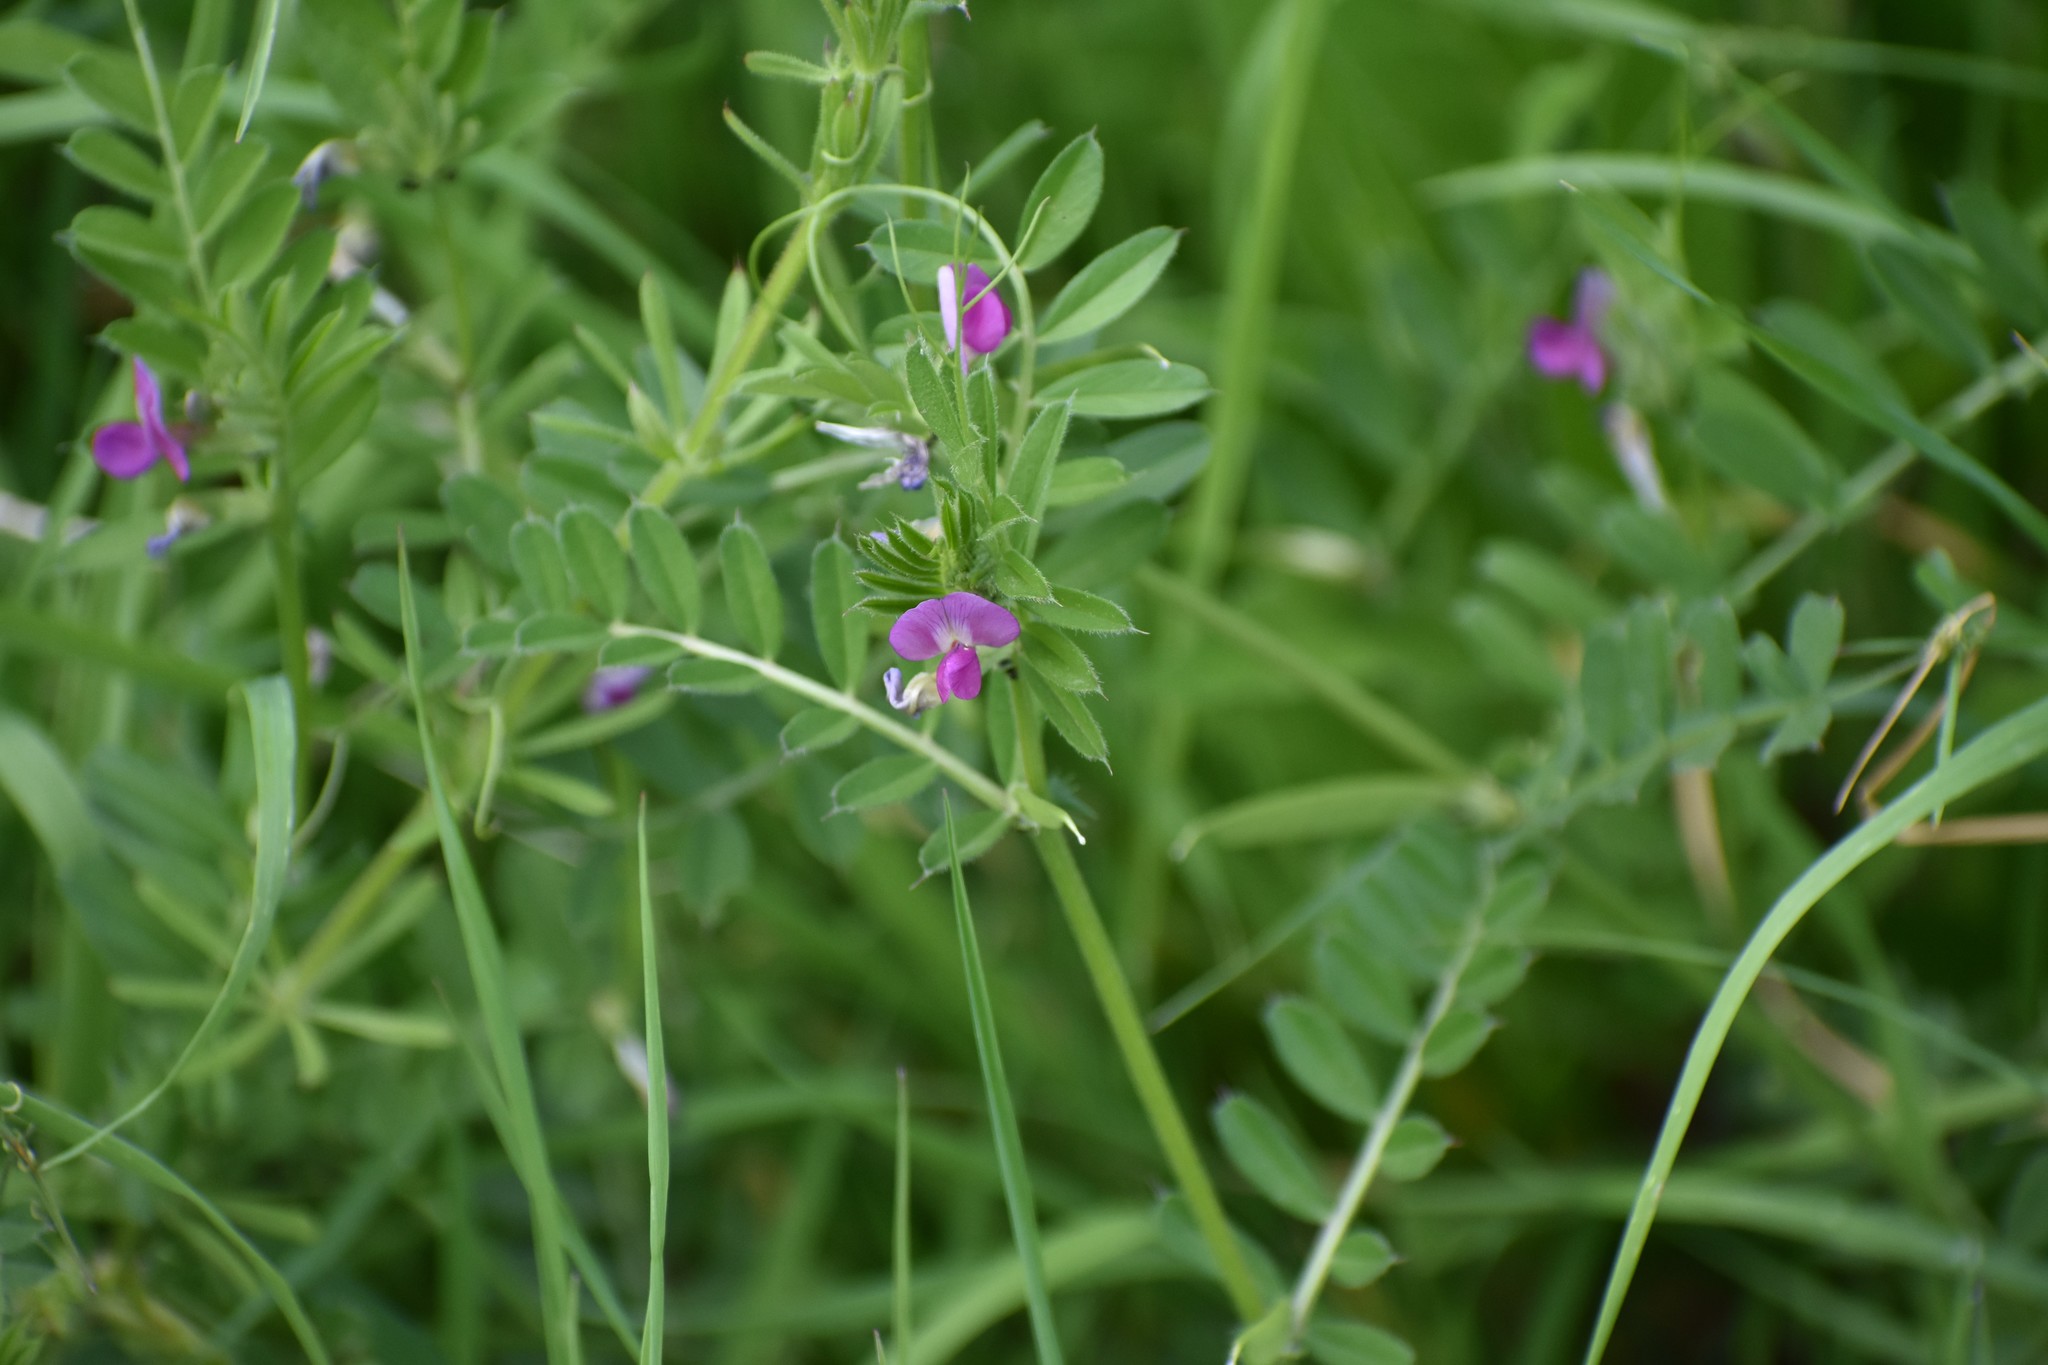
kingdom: Plantae
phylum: Tracheophyta
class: Magnoliopsida
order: Fabales
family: Fabaceae
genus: Vicia
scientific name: Vicia sativa
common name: Garden vetch
